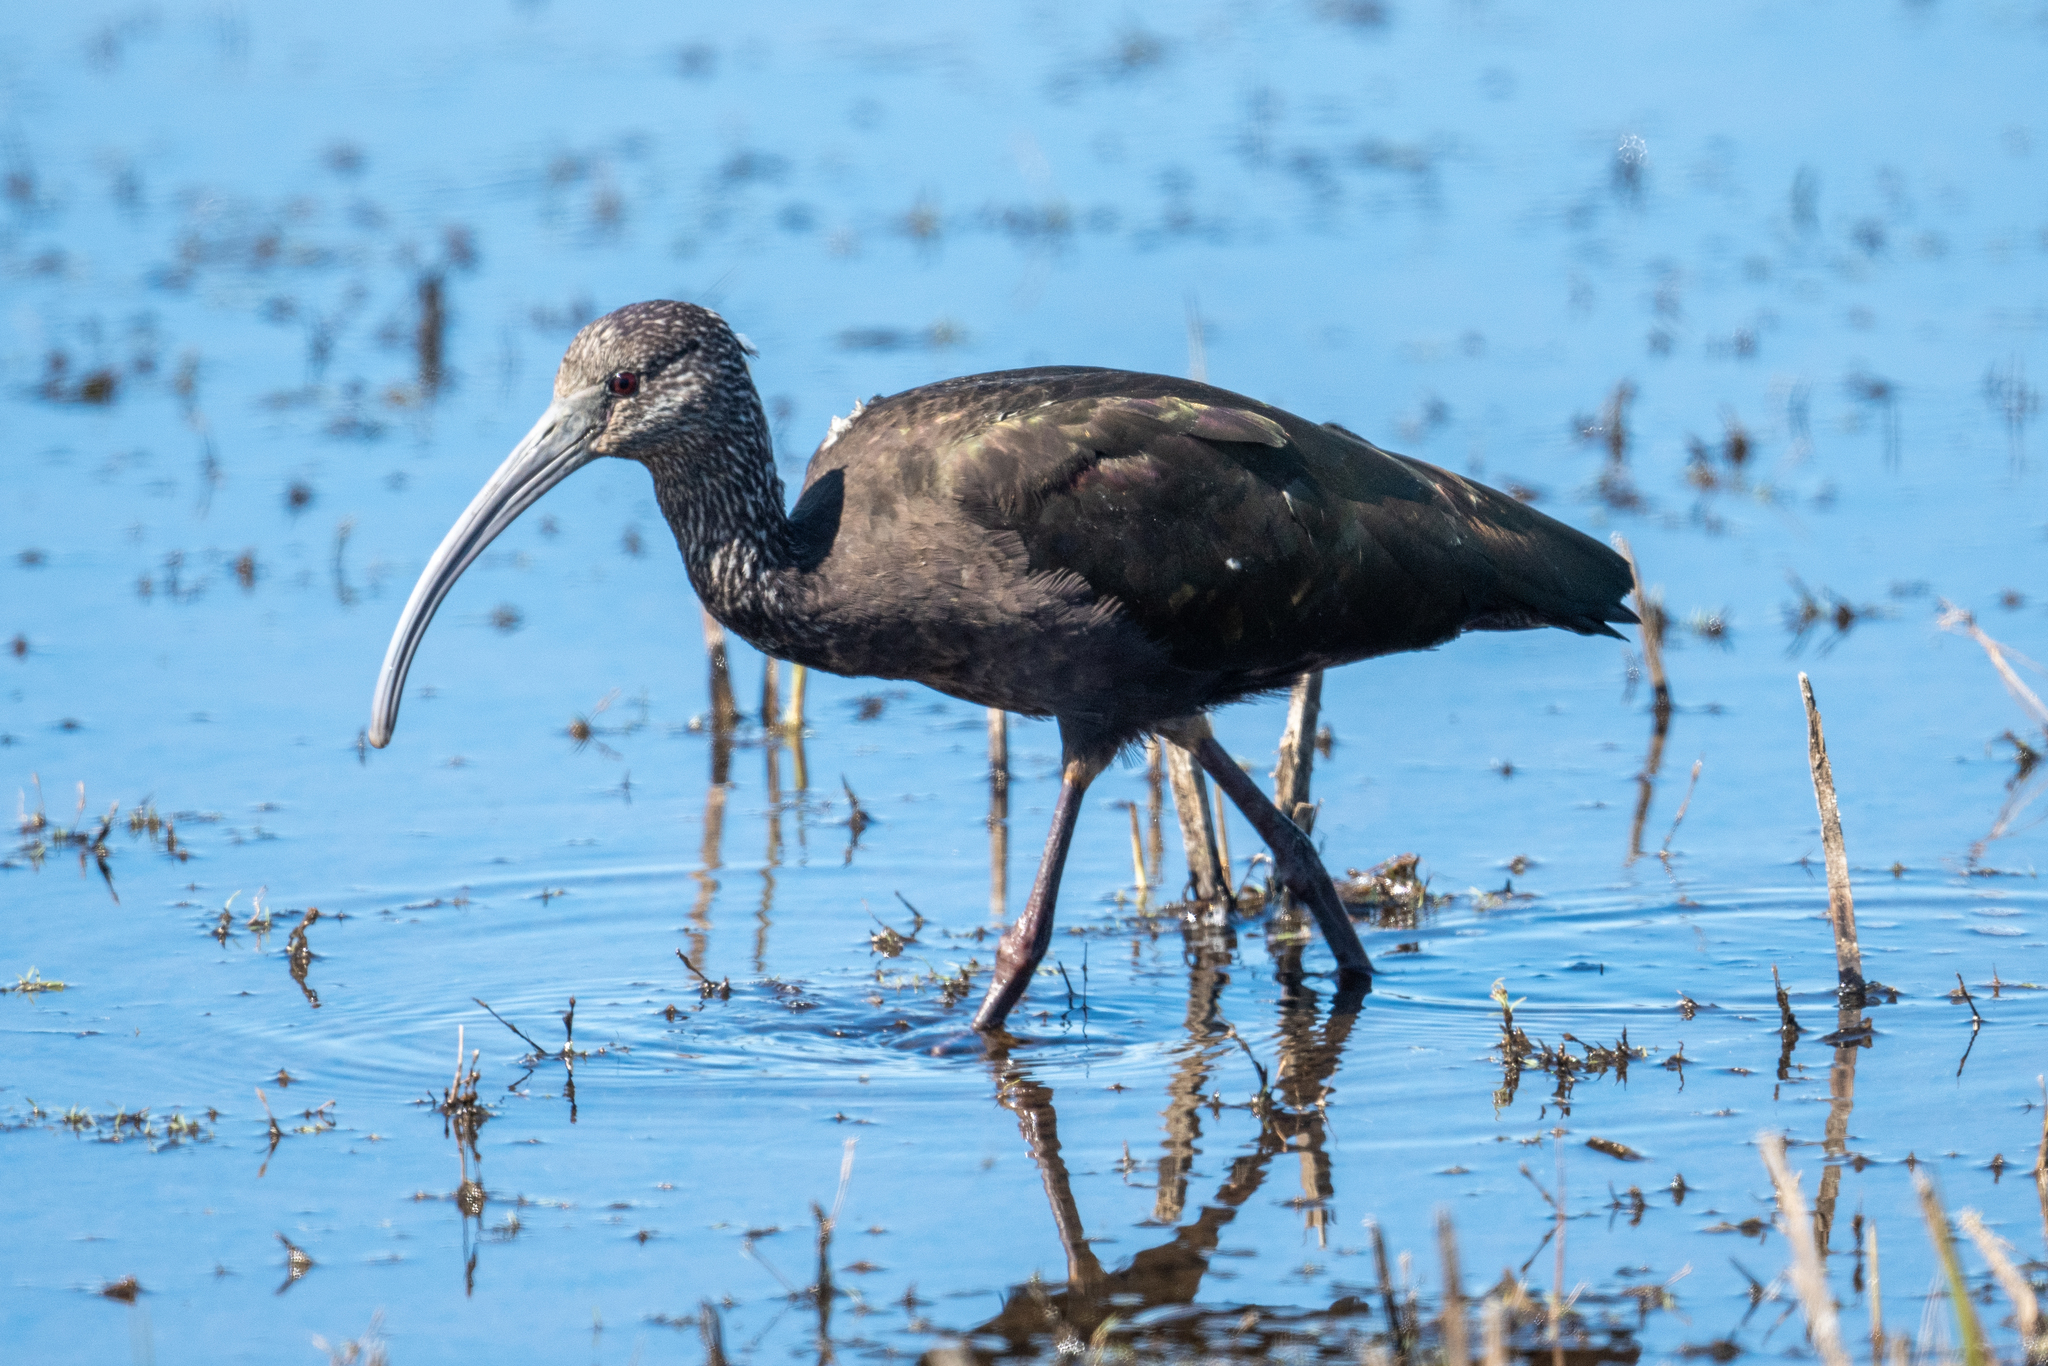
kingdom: Animalia
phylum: Chordata
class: Aves
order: Pelecaniformes
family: Threskiornithidae
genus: Plegadis
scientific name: Plegadis chihi
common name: White-faced ibis
